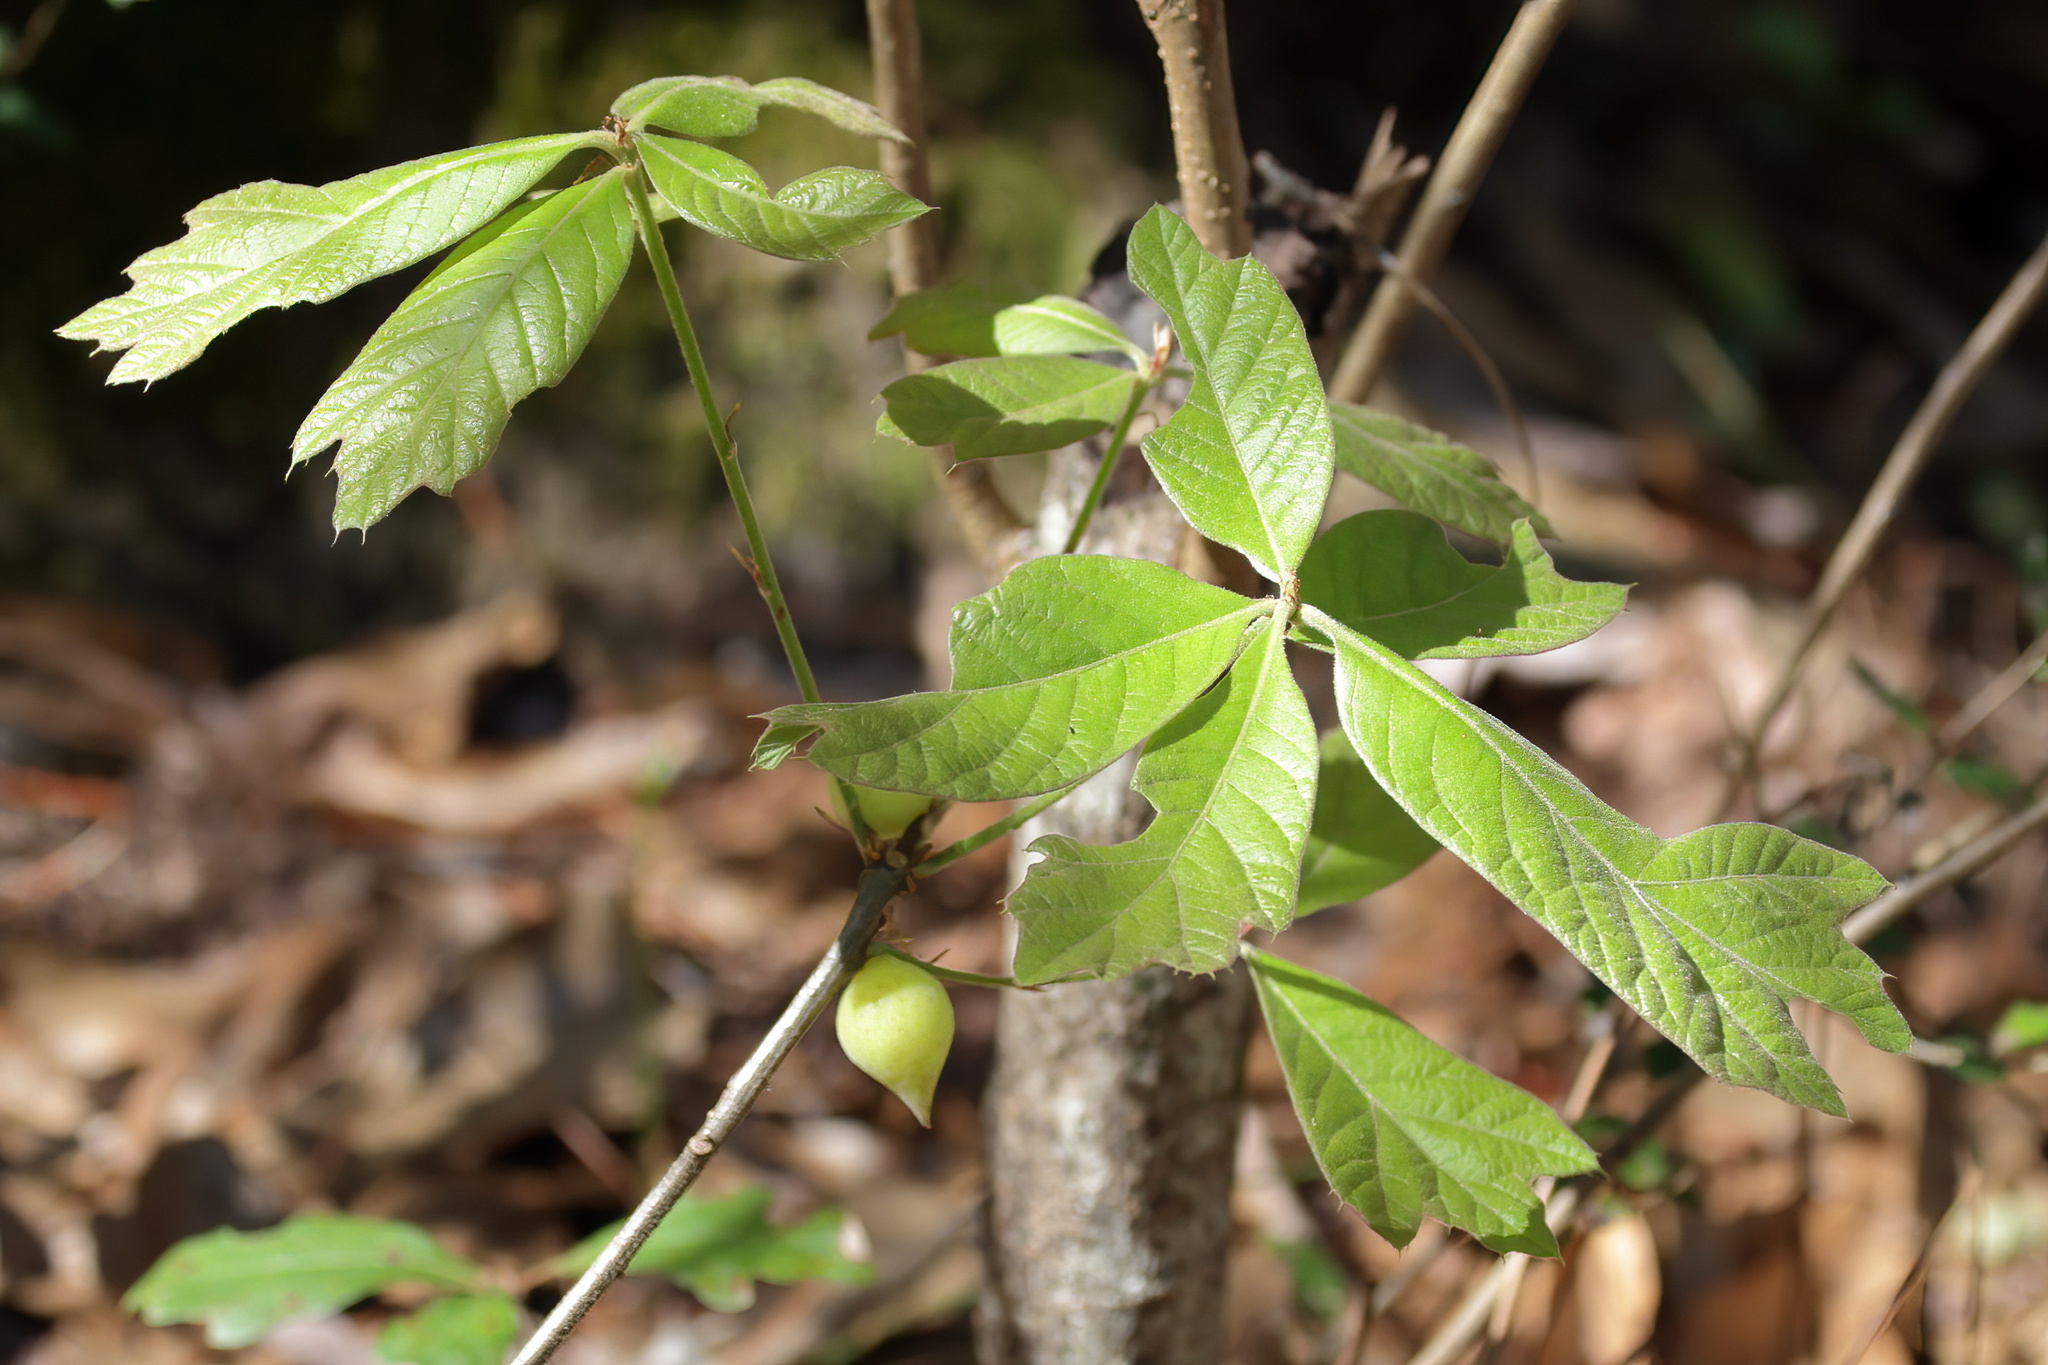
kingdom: Animalia
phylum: Arthropoda
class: Insecta
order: Hymenoptera
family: Cynipidae
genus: Amphibolips
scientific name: Amphibolips
